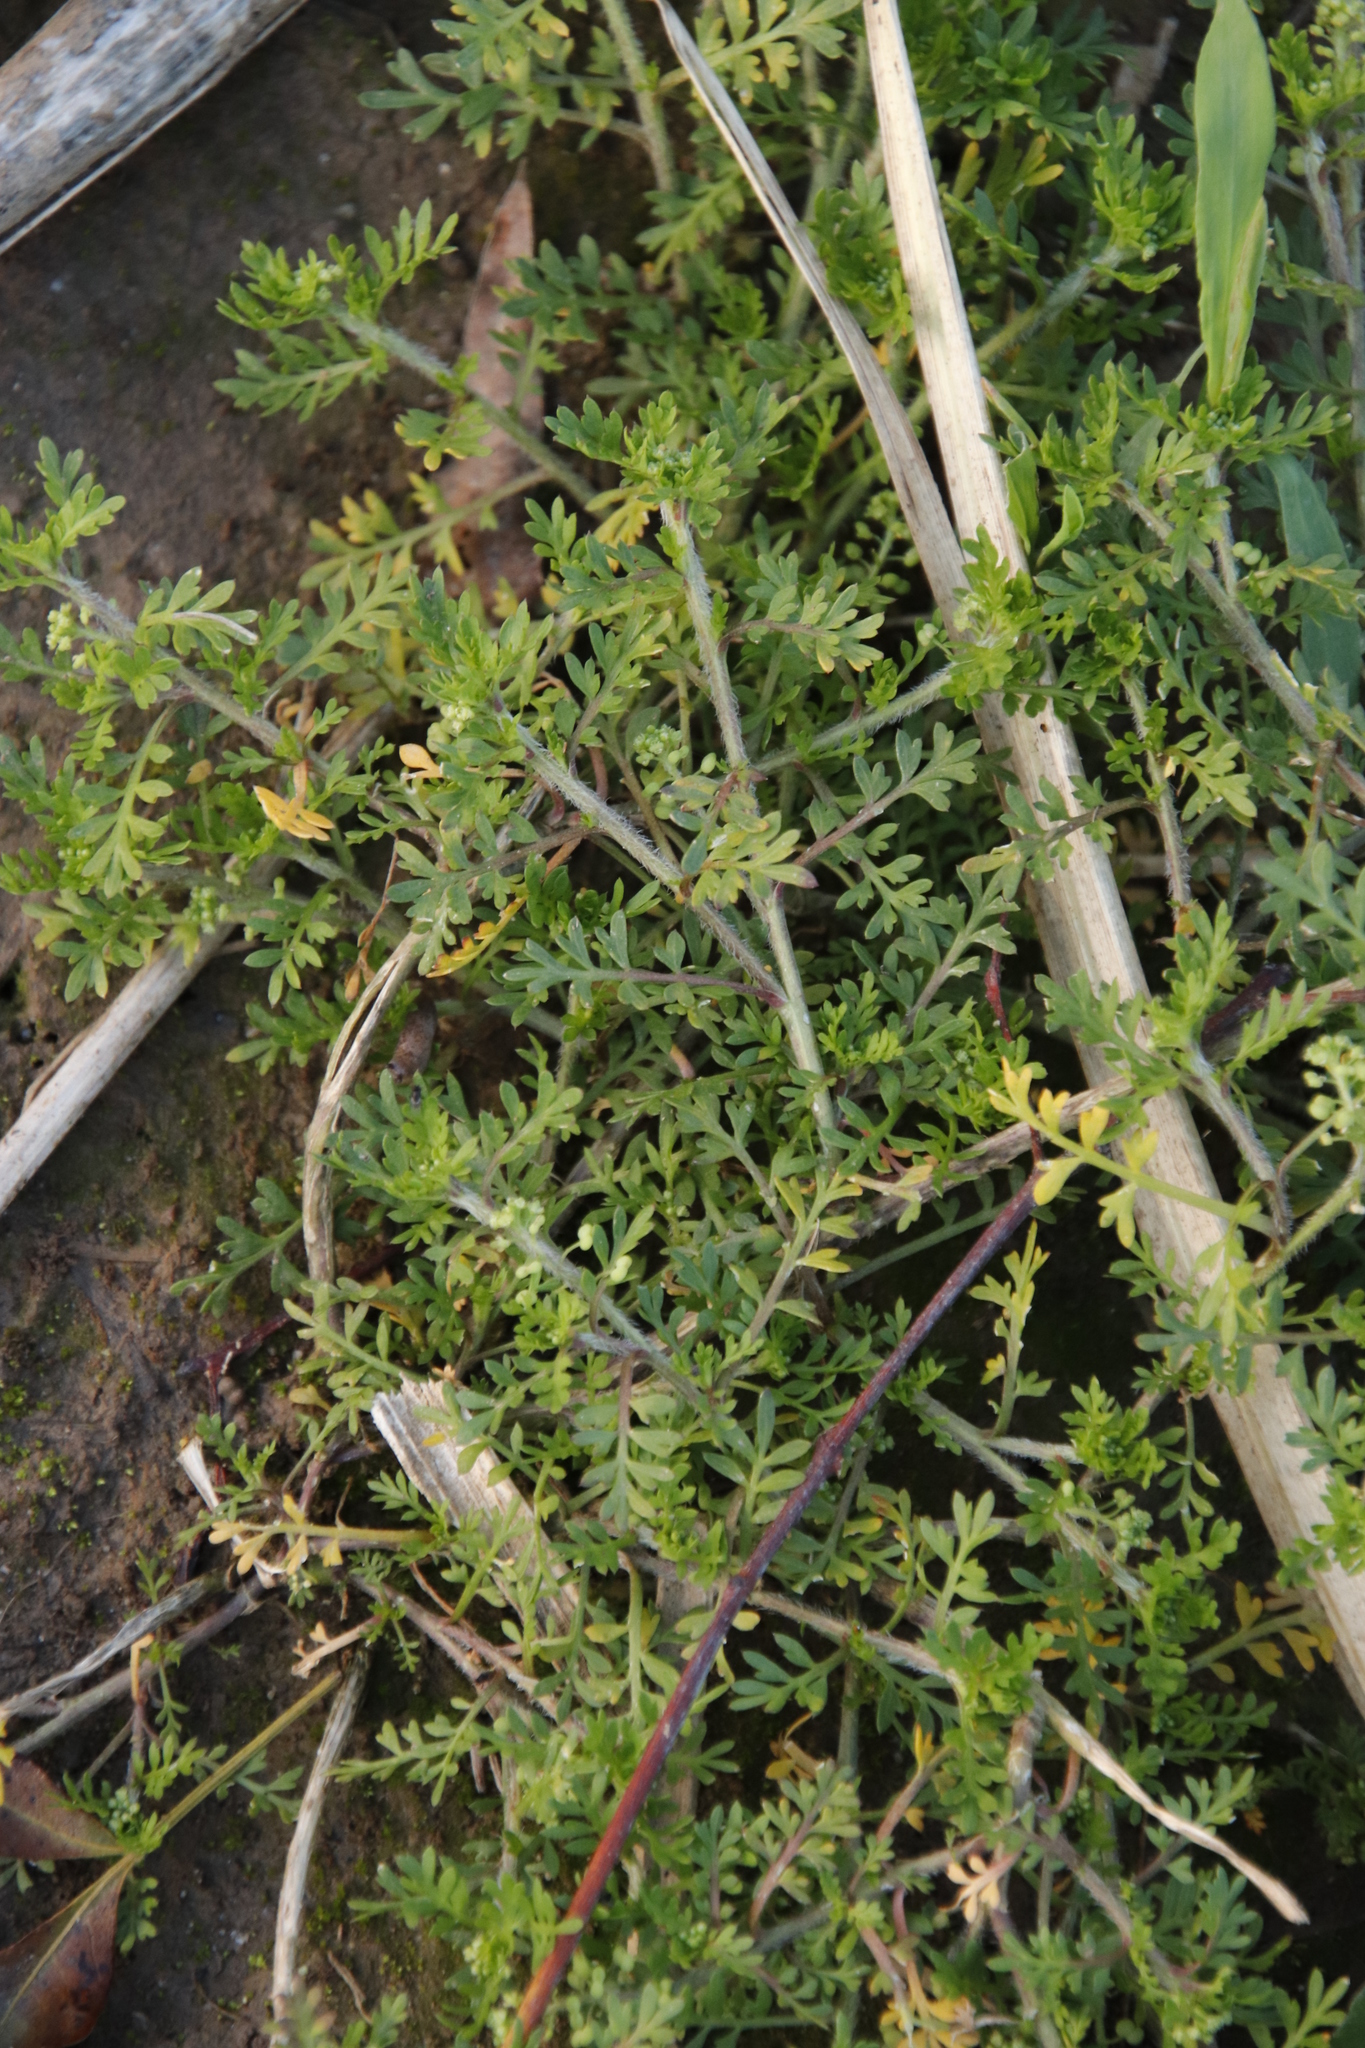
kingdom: Plantae
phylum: Tracheophyta
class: Magnoliopsida
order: Brassicales
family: Brassicaceae
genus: Lepidium
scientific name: Lepidium didymum
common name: Lesser swinecress
